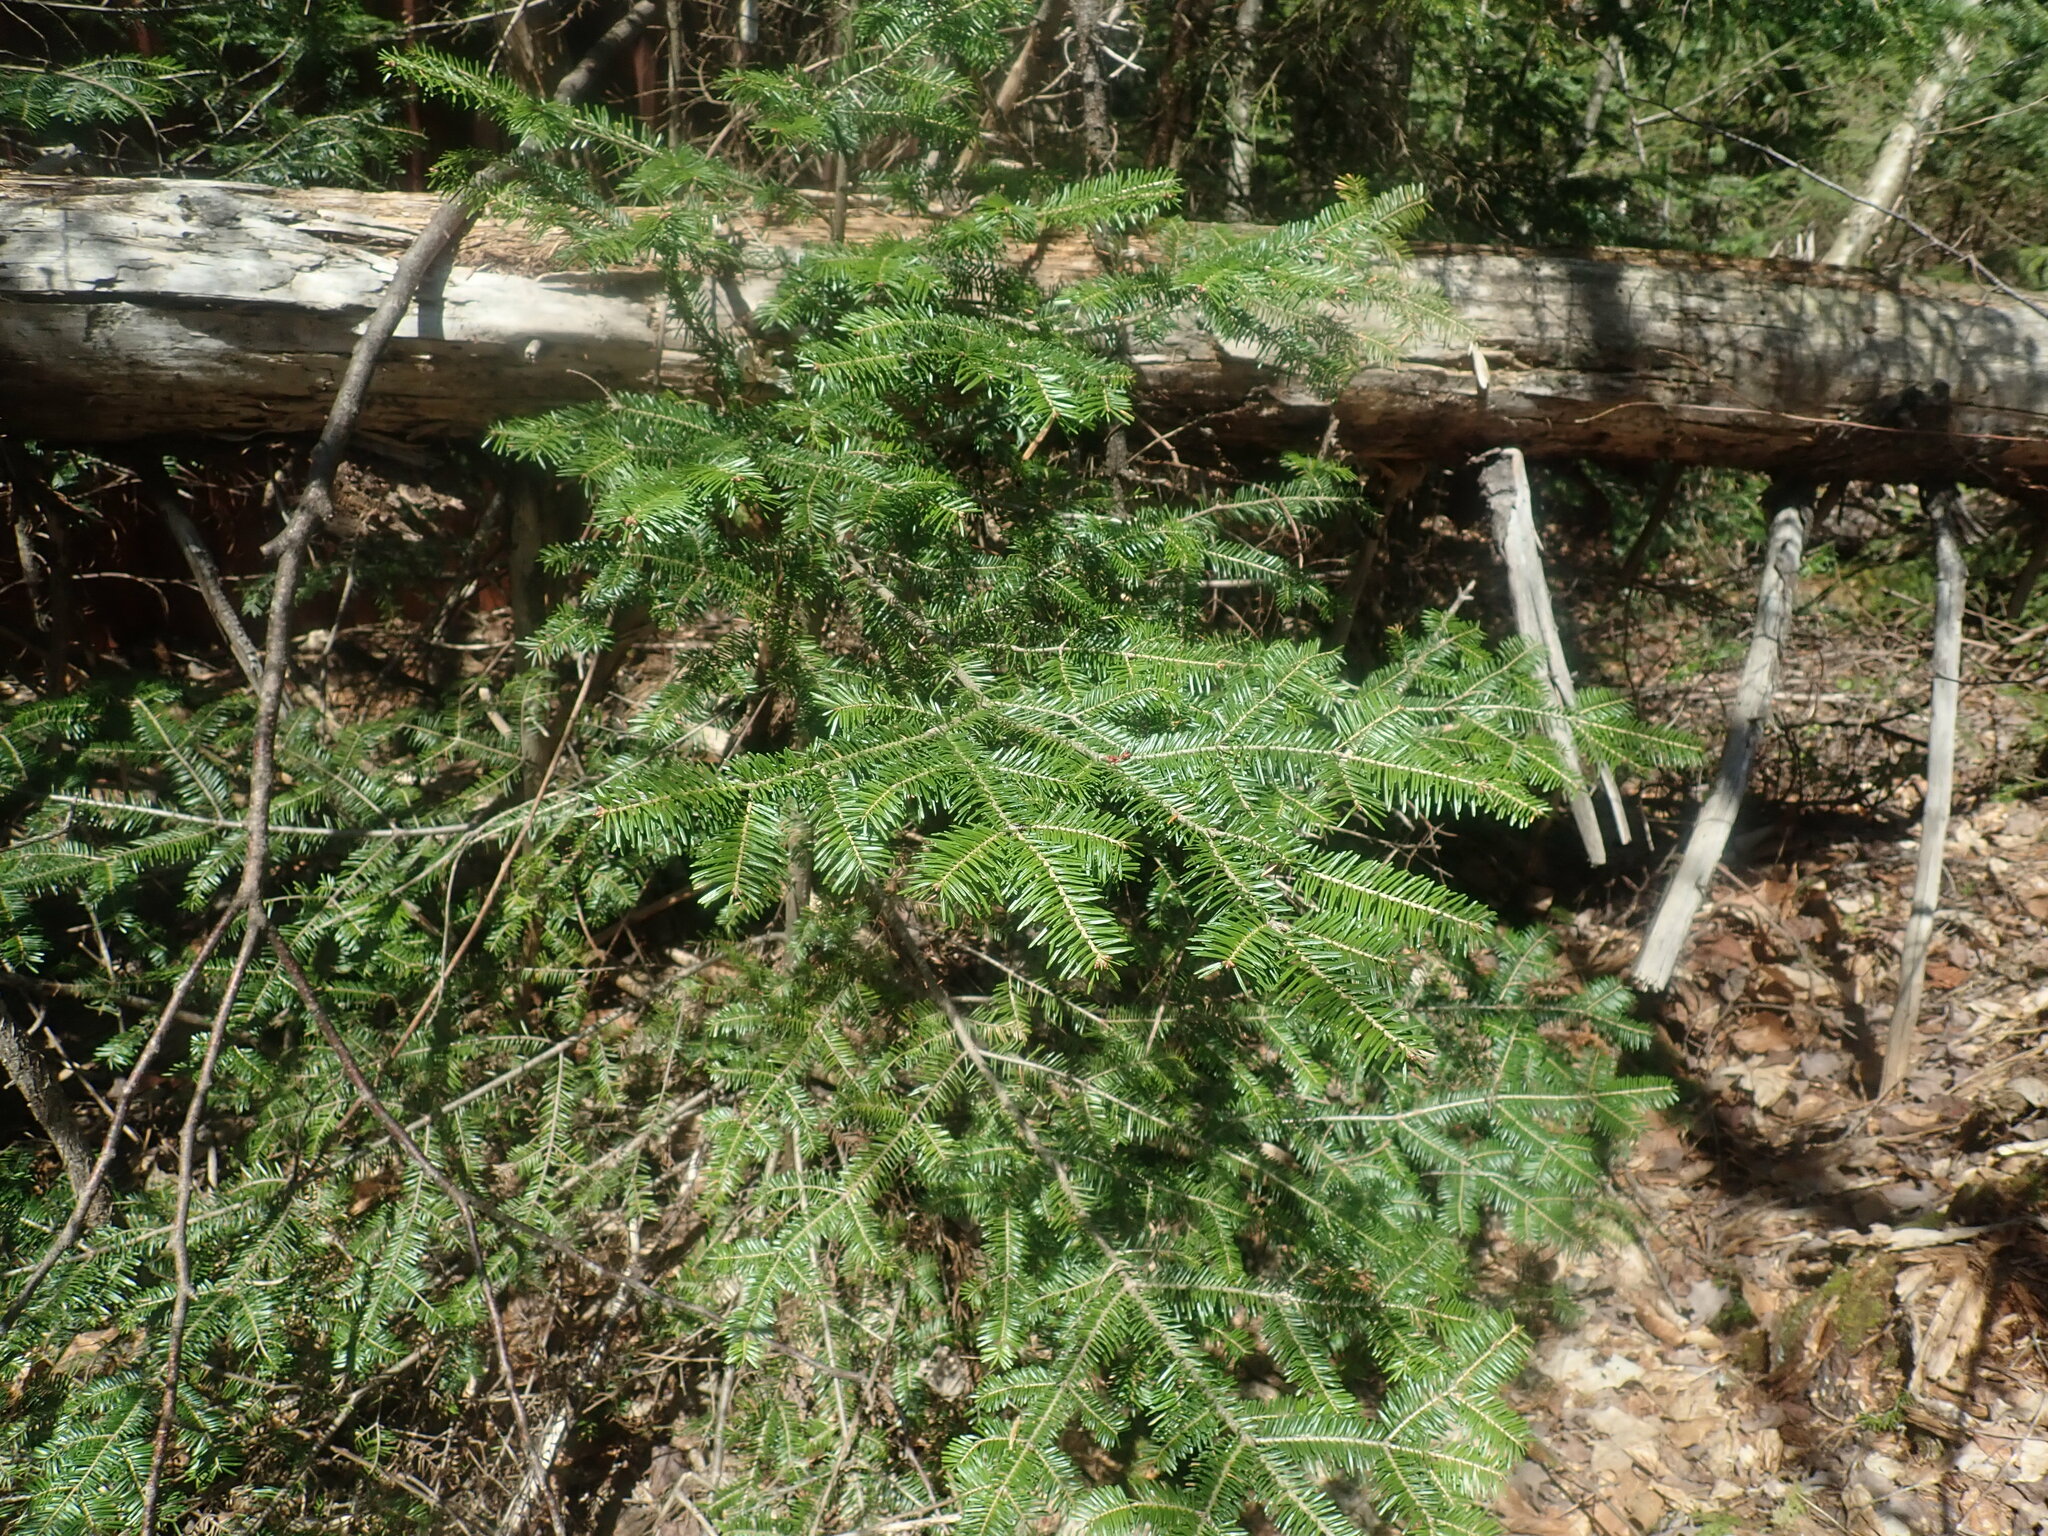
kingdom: Plantae
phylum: Tracheophyta
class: Pinopsida
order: Pinales
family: Pinaceae
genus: Abies
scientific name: Abies balsamea
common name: Balsam fir
